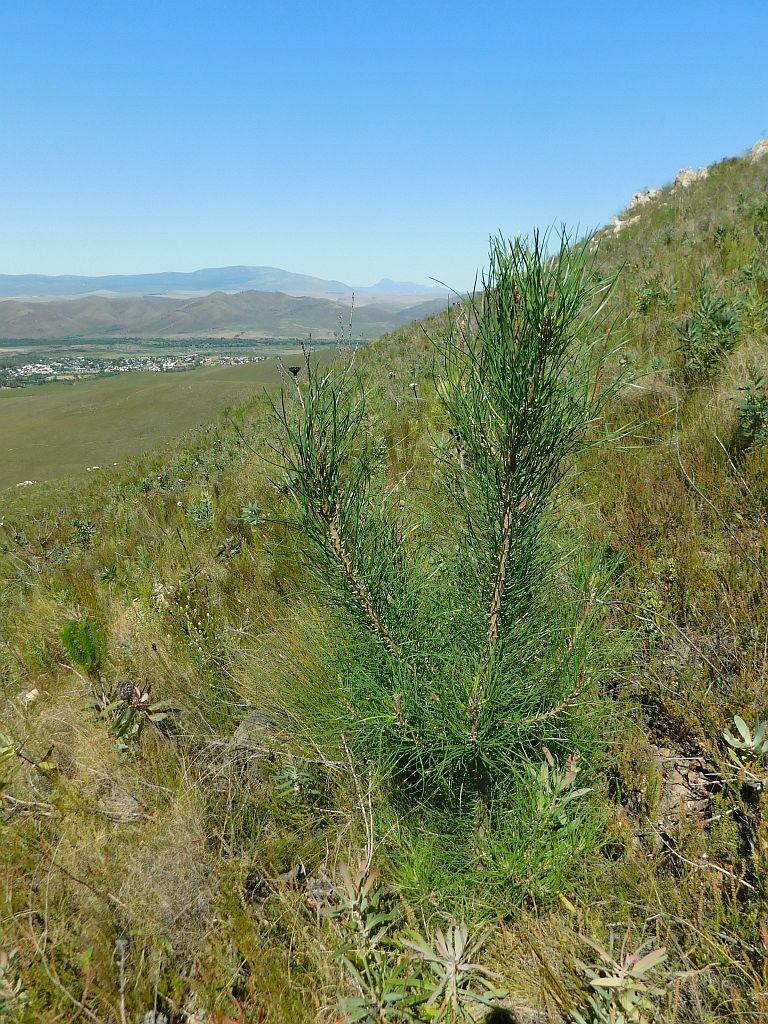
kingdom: Plantae
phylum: Tracheophyta
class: Pinopsida
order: Pinales
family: Pinaceae
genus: Pinus
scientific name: Pinus pinaster
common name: Maritime pine
